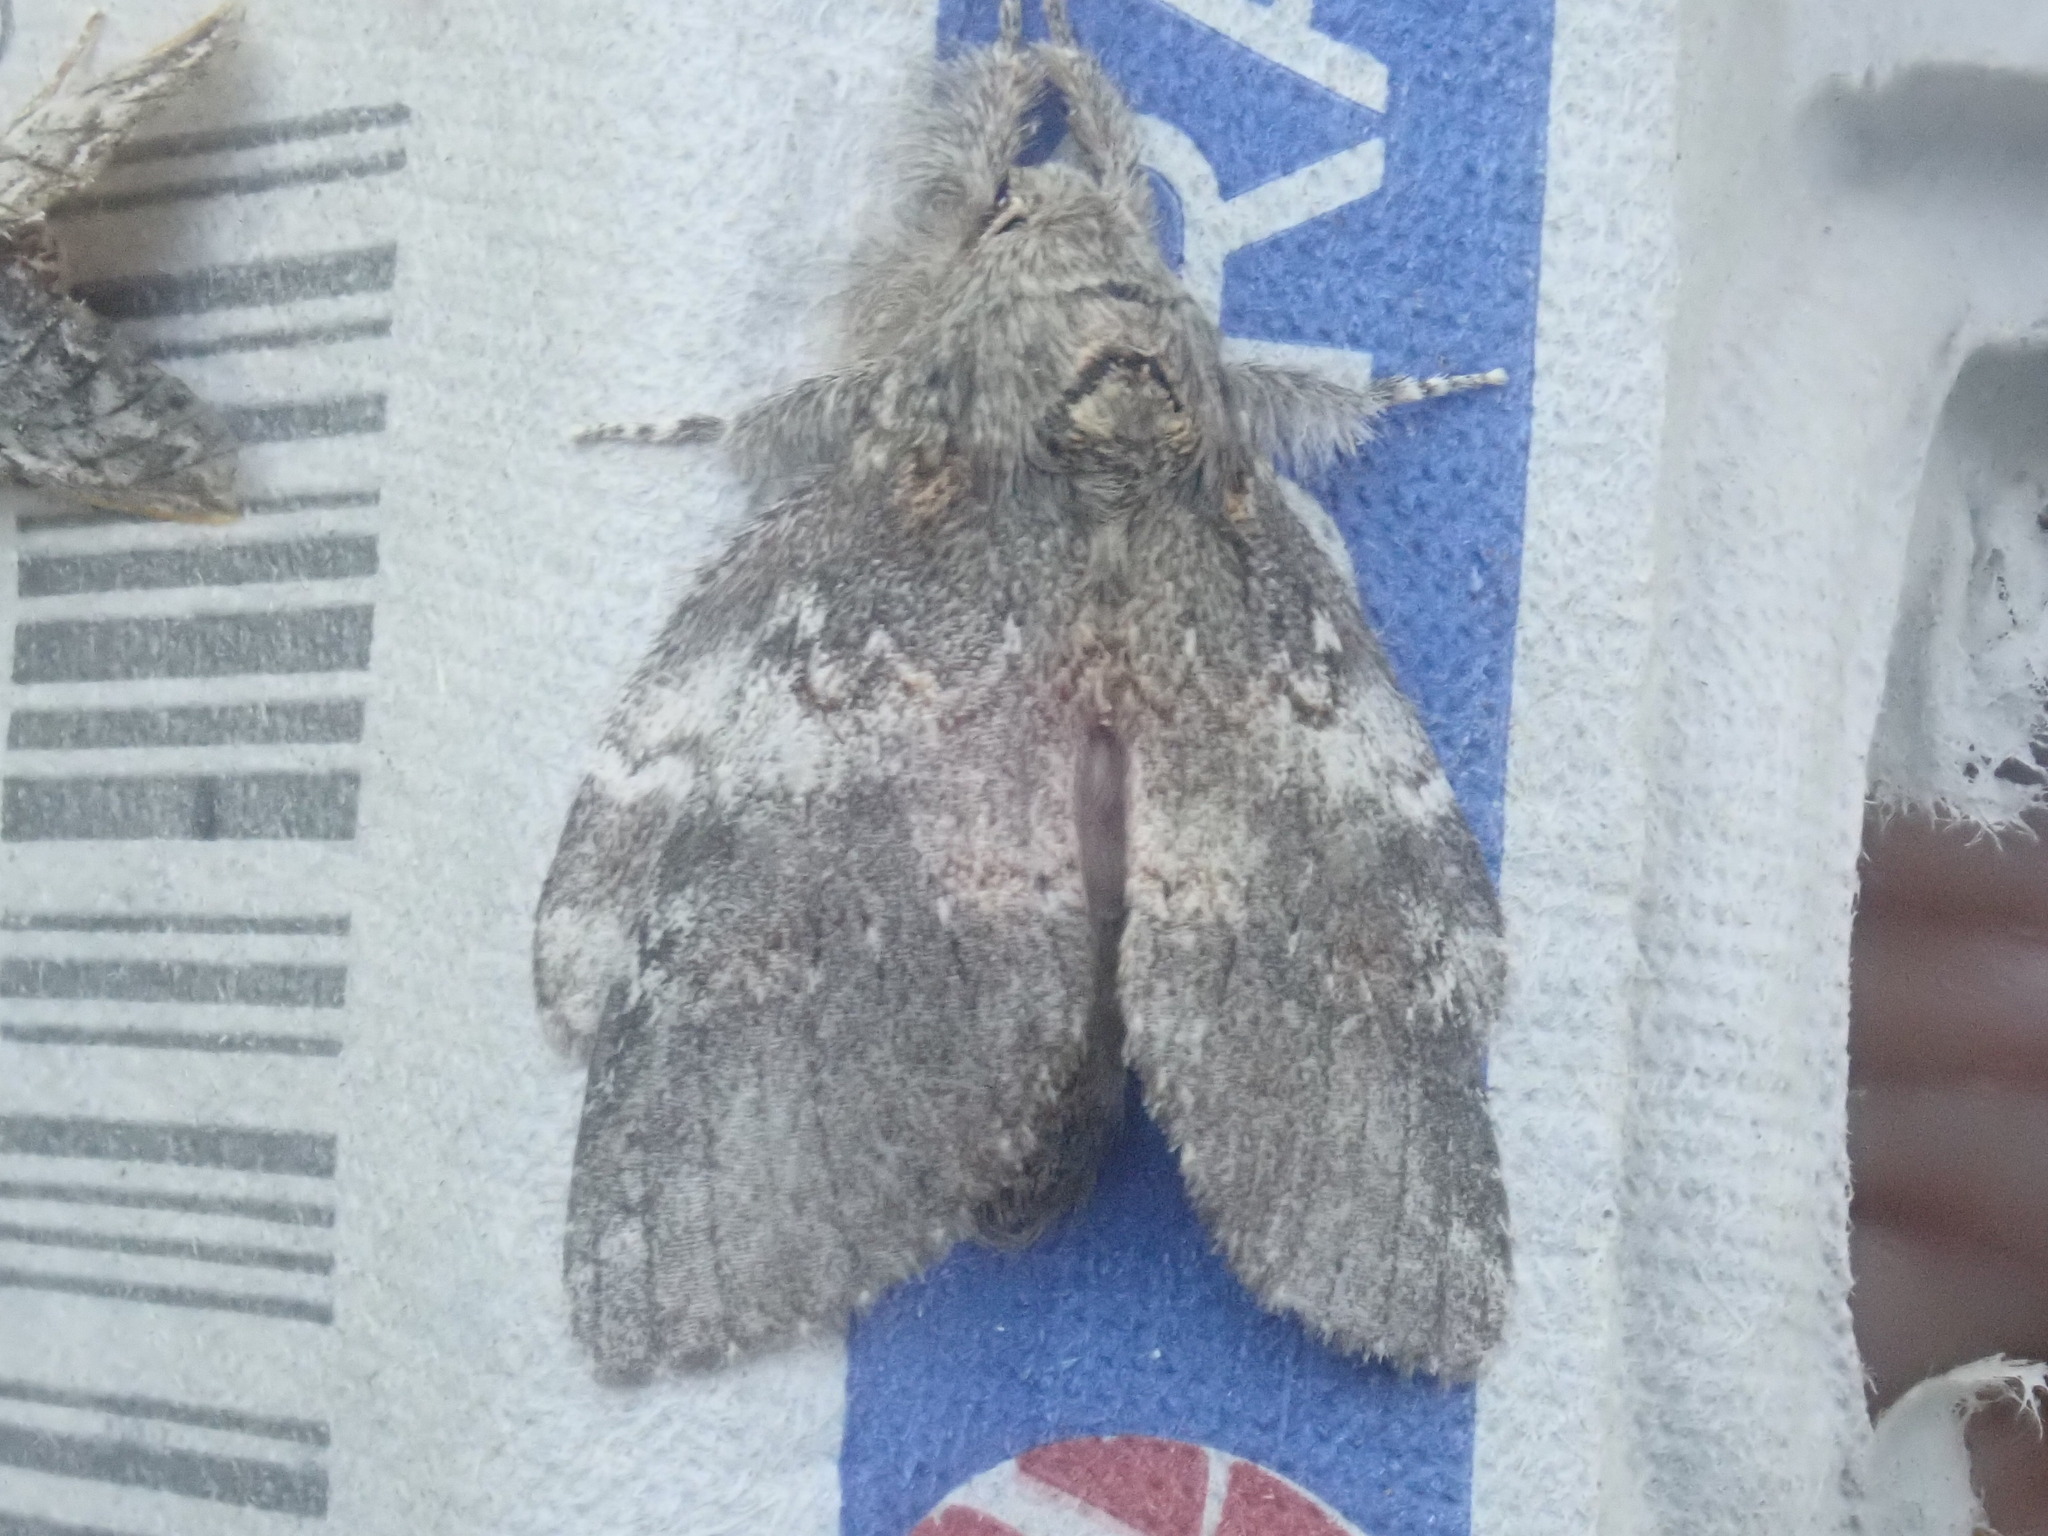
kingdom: Animalia
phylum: Arthropoda
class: Insecta
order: Lepidoptera
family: Notodontidae
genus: Peridea
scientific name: Peridea angulosa
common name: Angulose prominent
